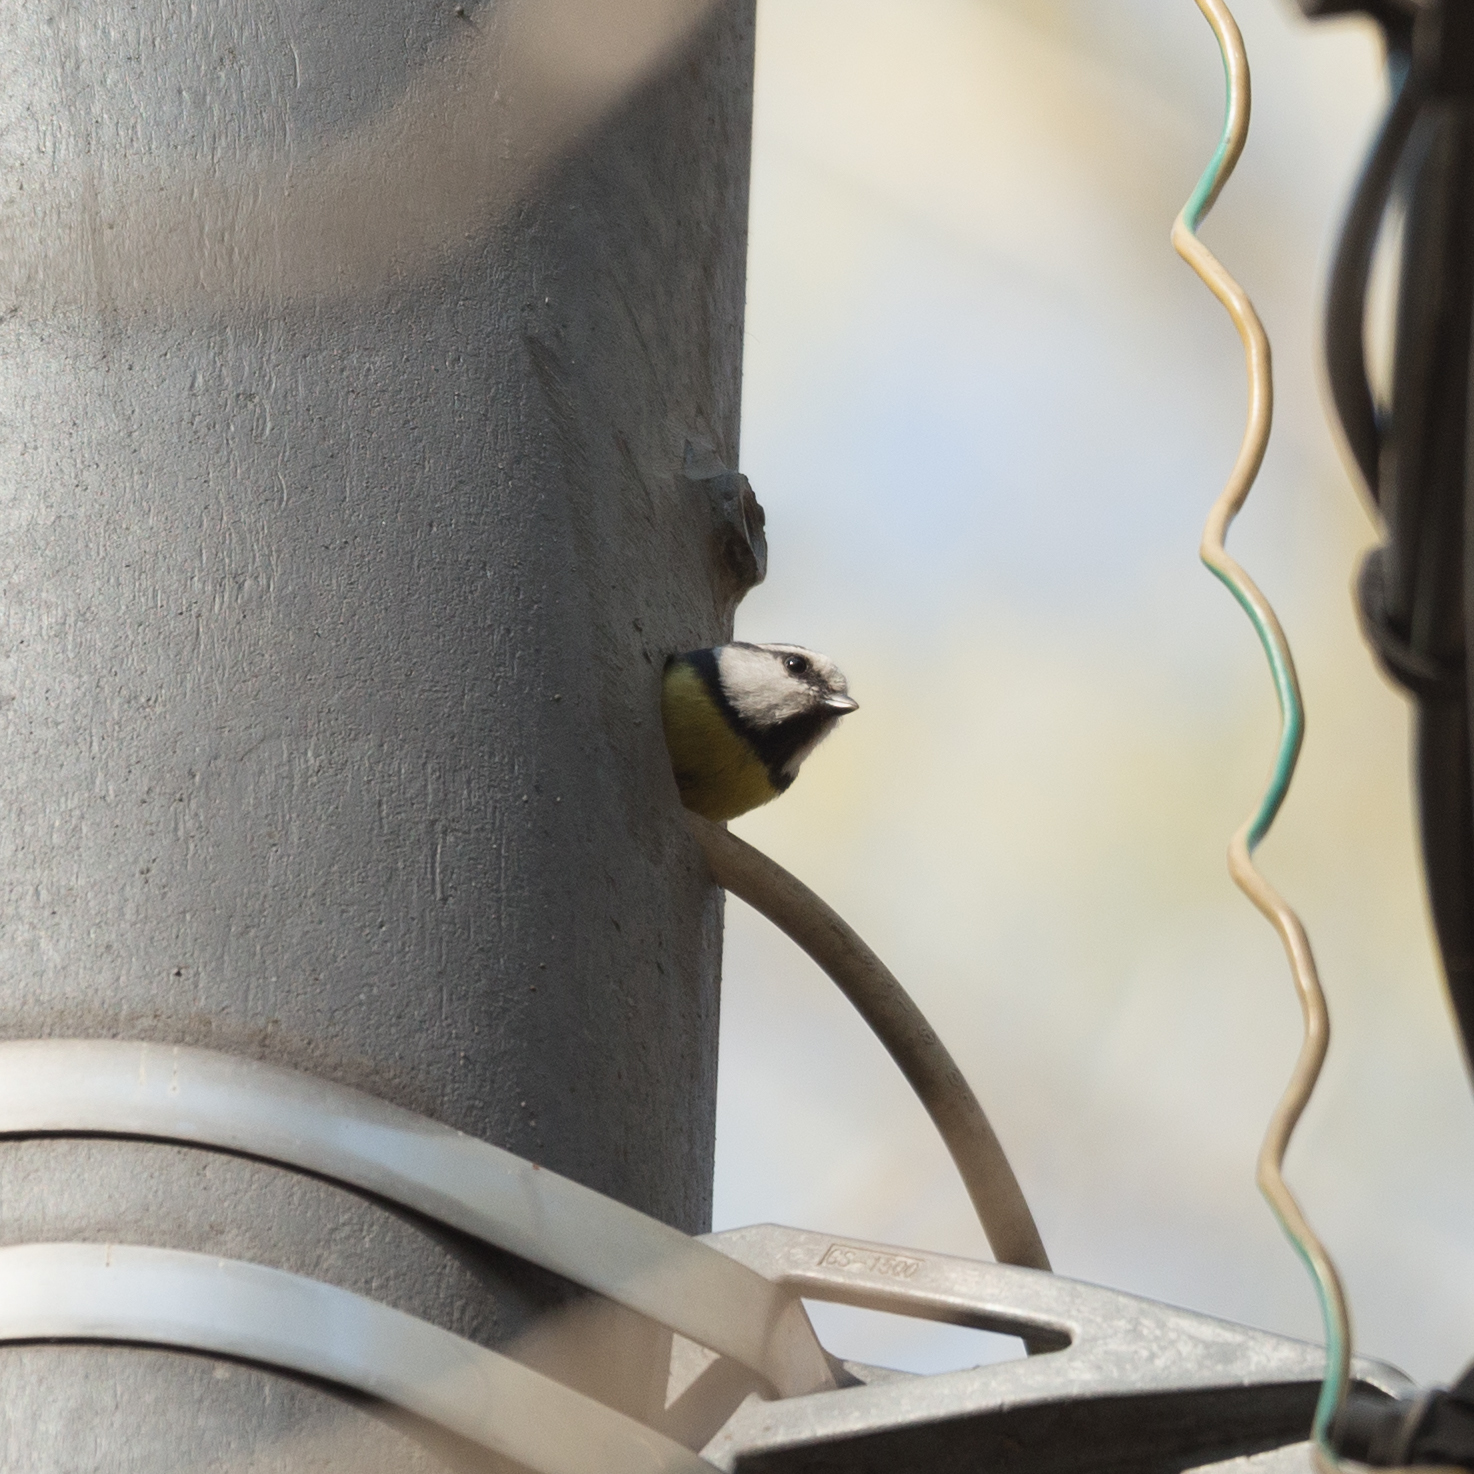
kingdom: Animalia
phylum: Chordata
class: Aves
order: Passeriformes
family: Paridae
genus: Cyanistes
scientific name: Cyanistes caeruleus
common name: Eurasian blue tit
